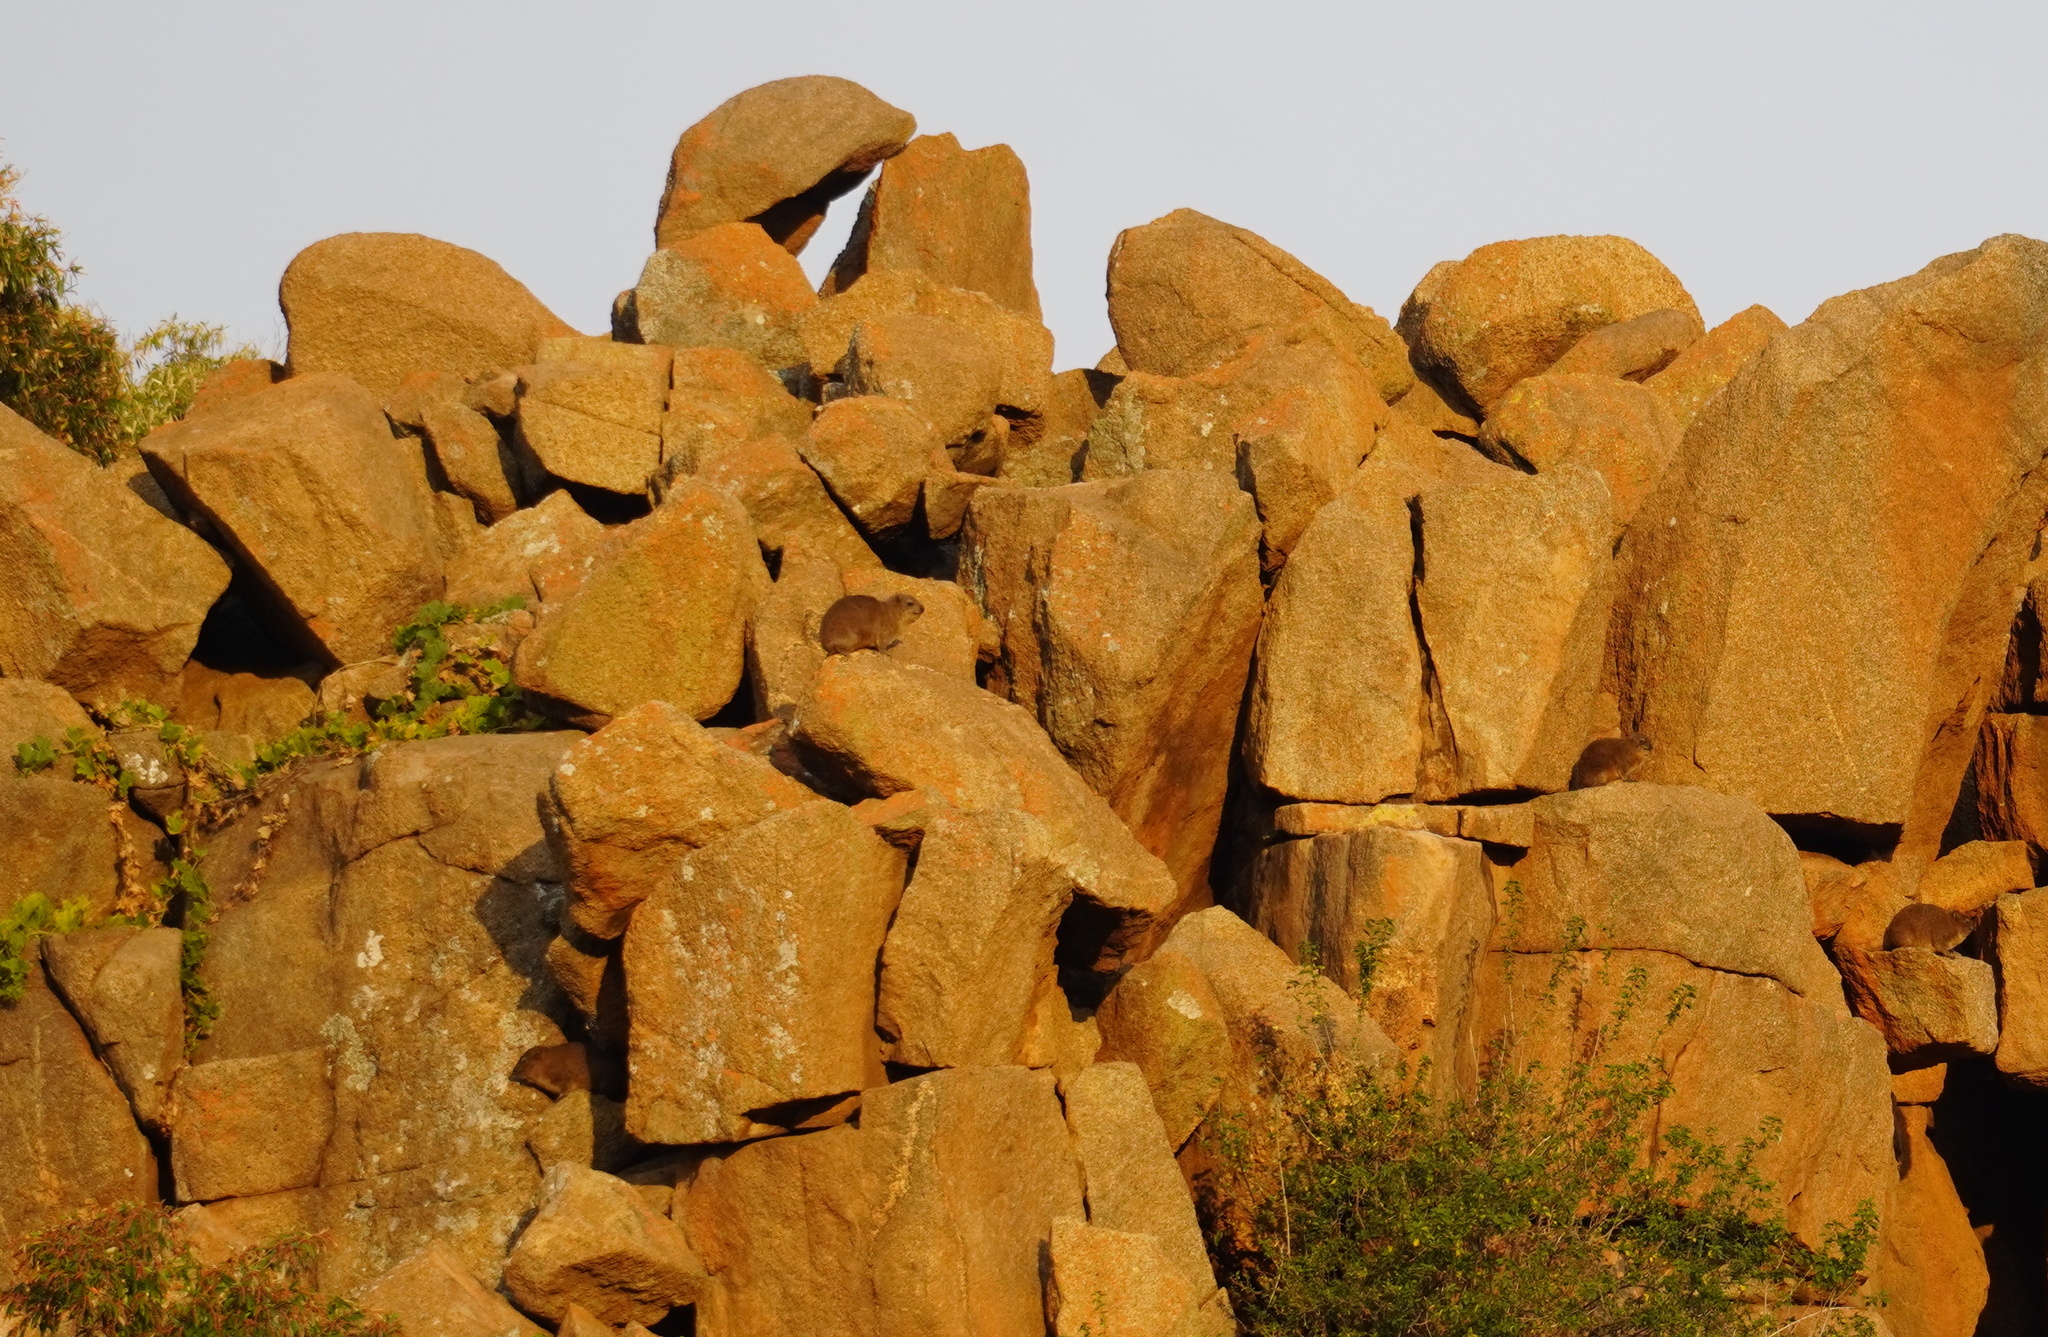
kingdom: Animalia
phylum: Chordata
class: Mammalia
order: Hyracoidea
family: Procaviidae
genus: Procavia
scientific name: Procavia capensis
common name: Rock hyrax
